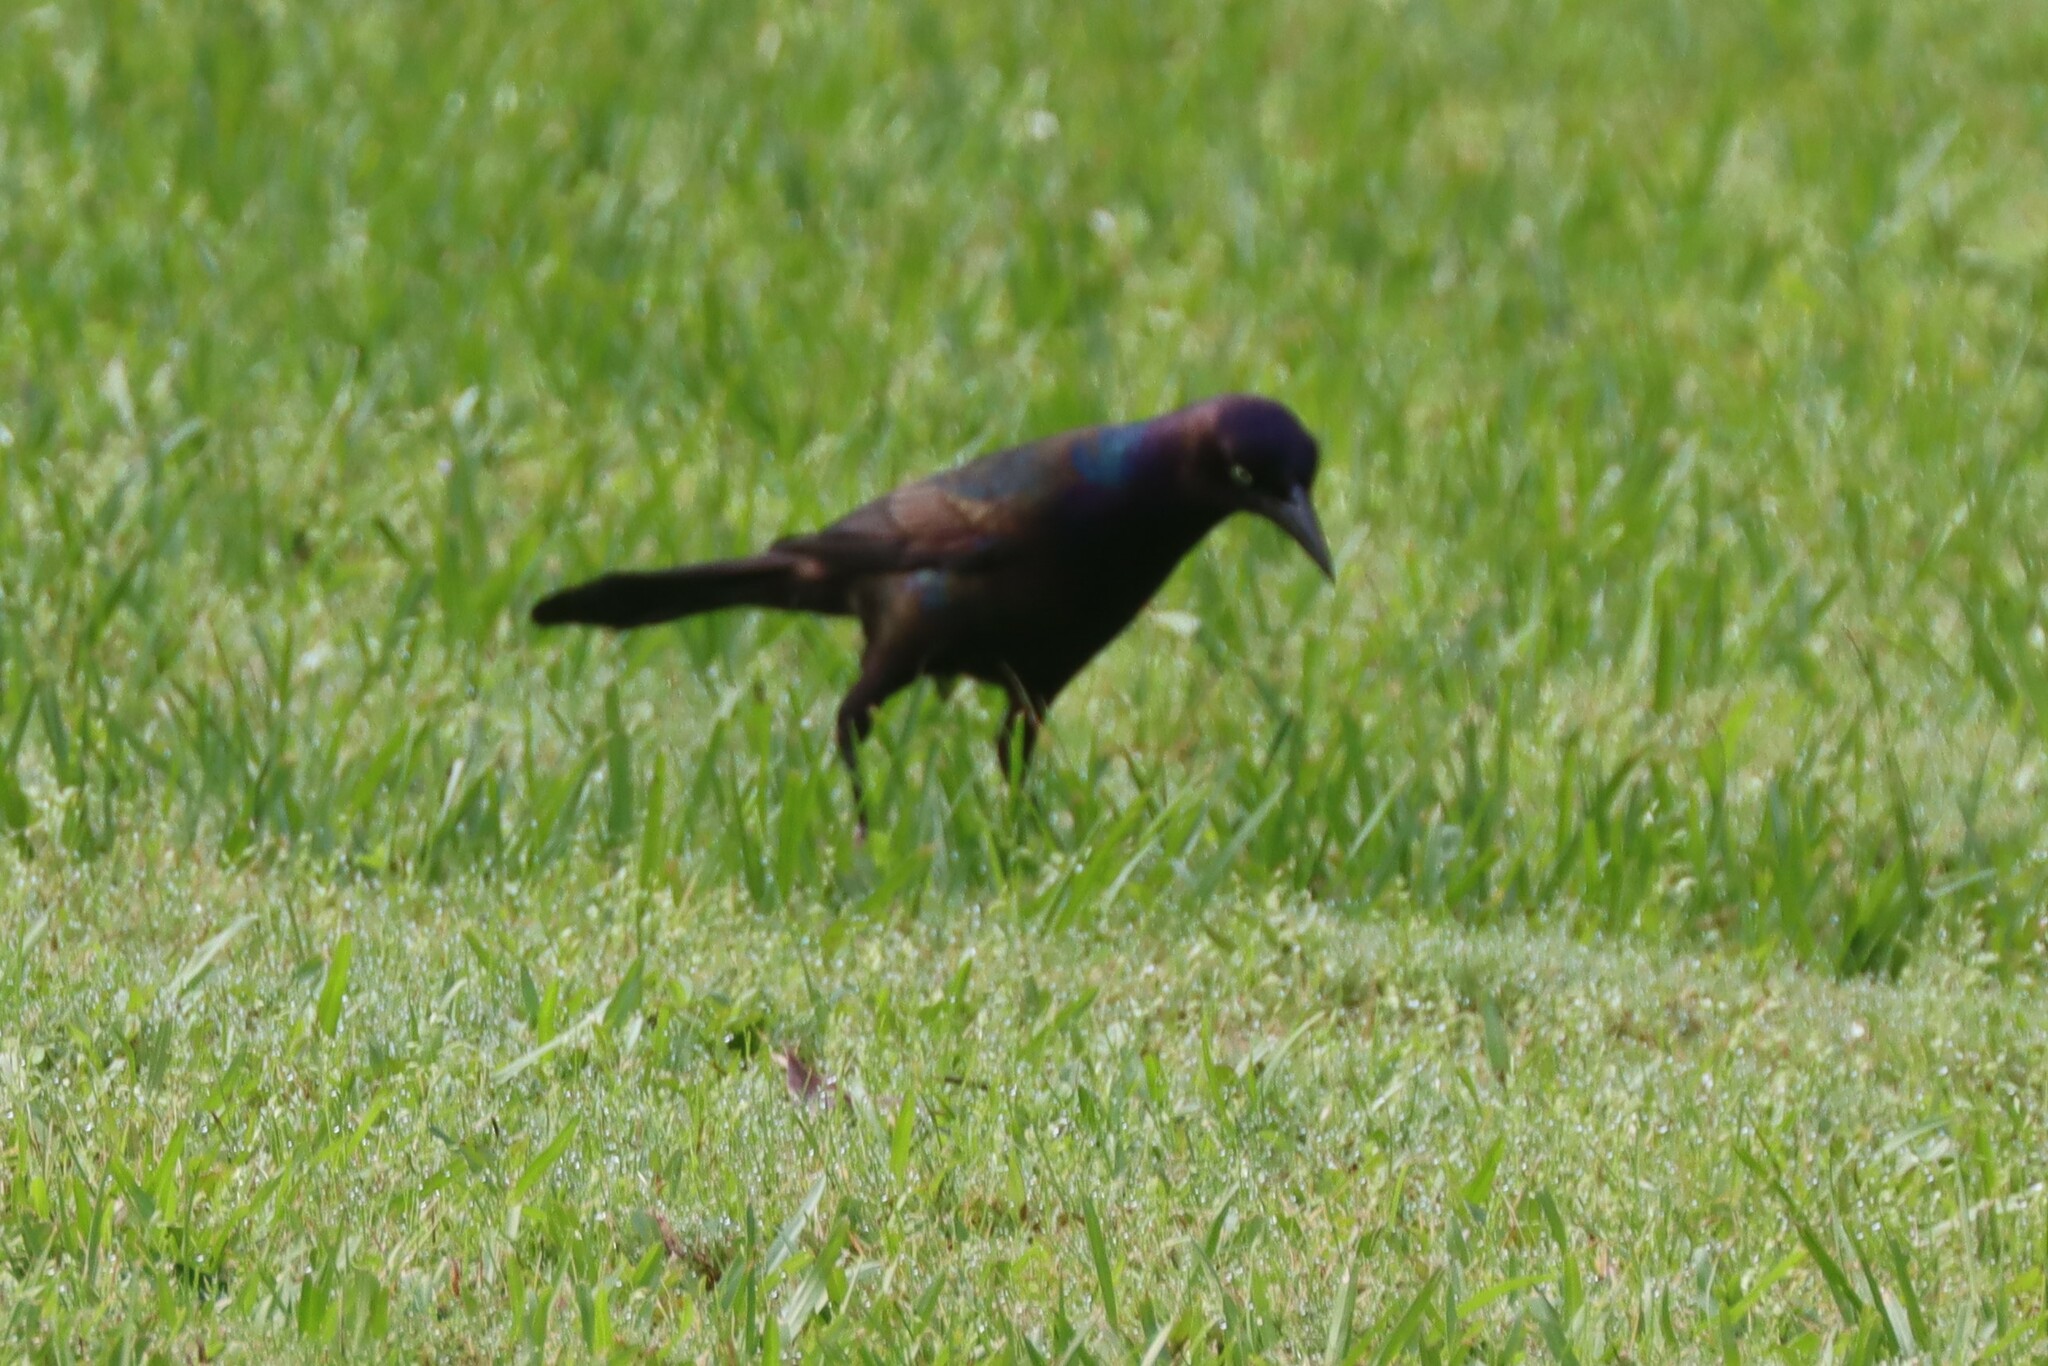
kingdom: Animalia
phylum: Chordata
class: Aves
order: Passeriformes
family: Icteridae
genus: Quiscalus
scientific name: Quiscalus quiscula
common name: Common grackle
